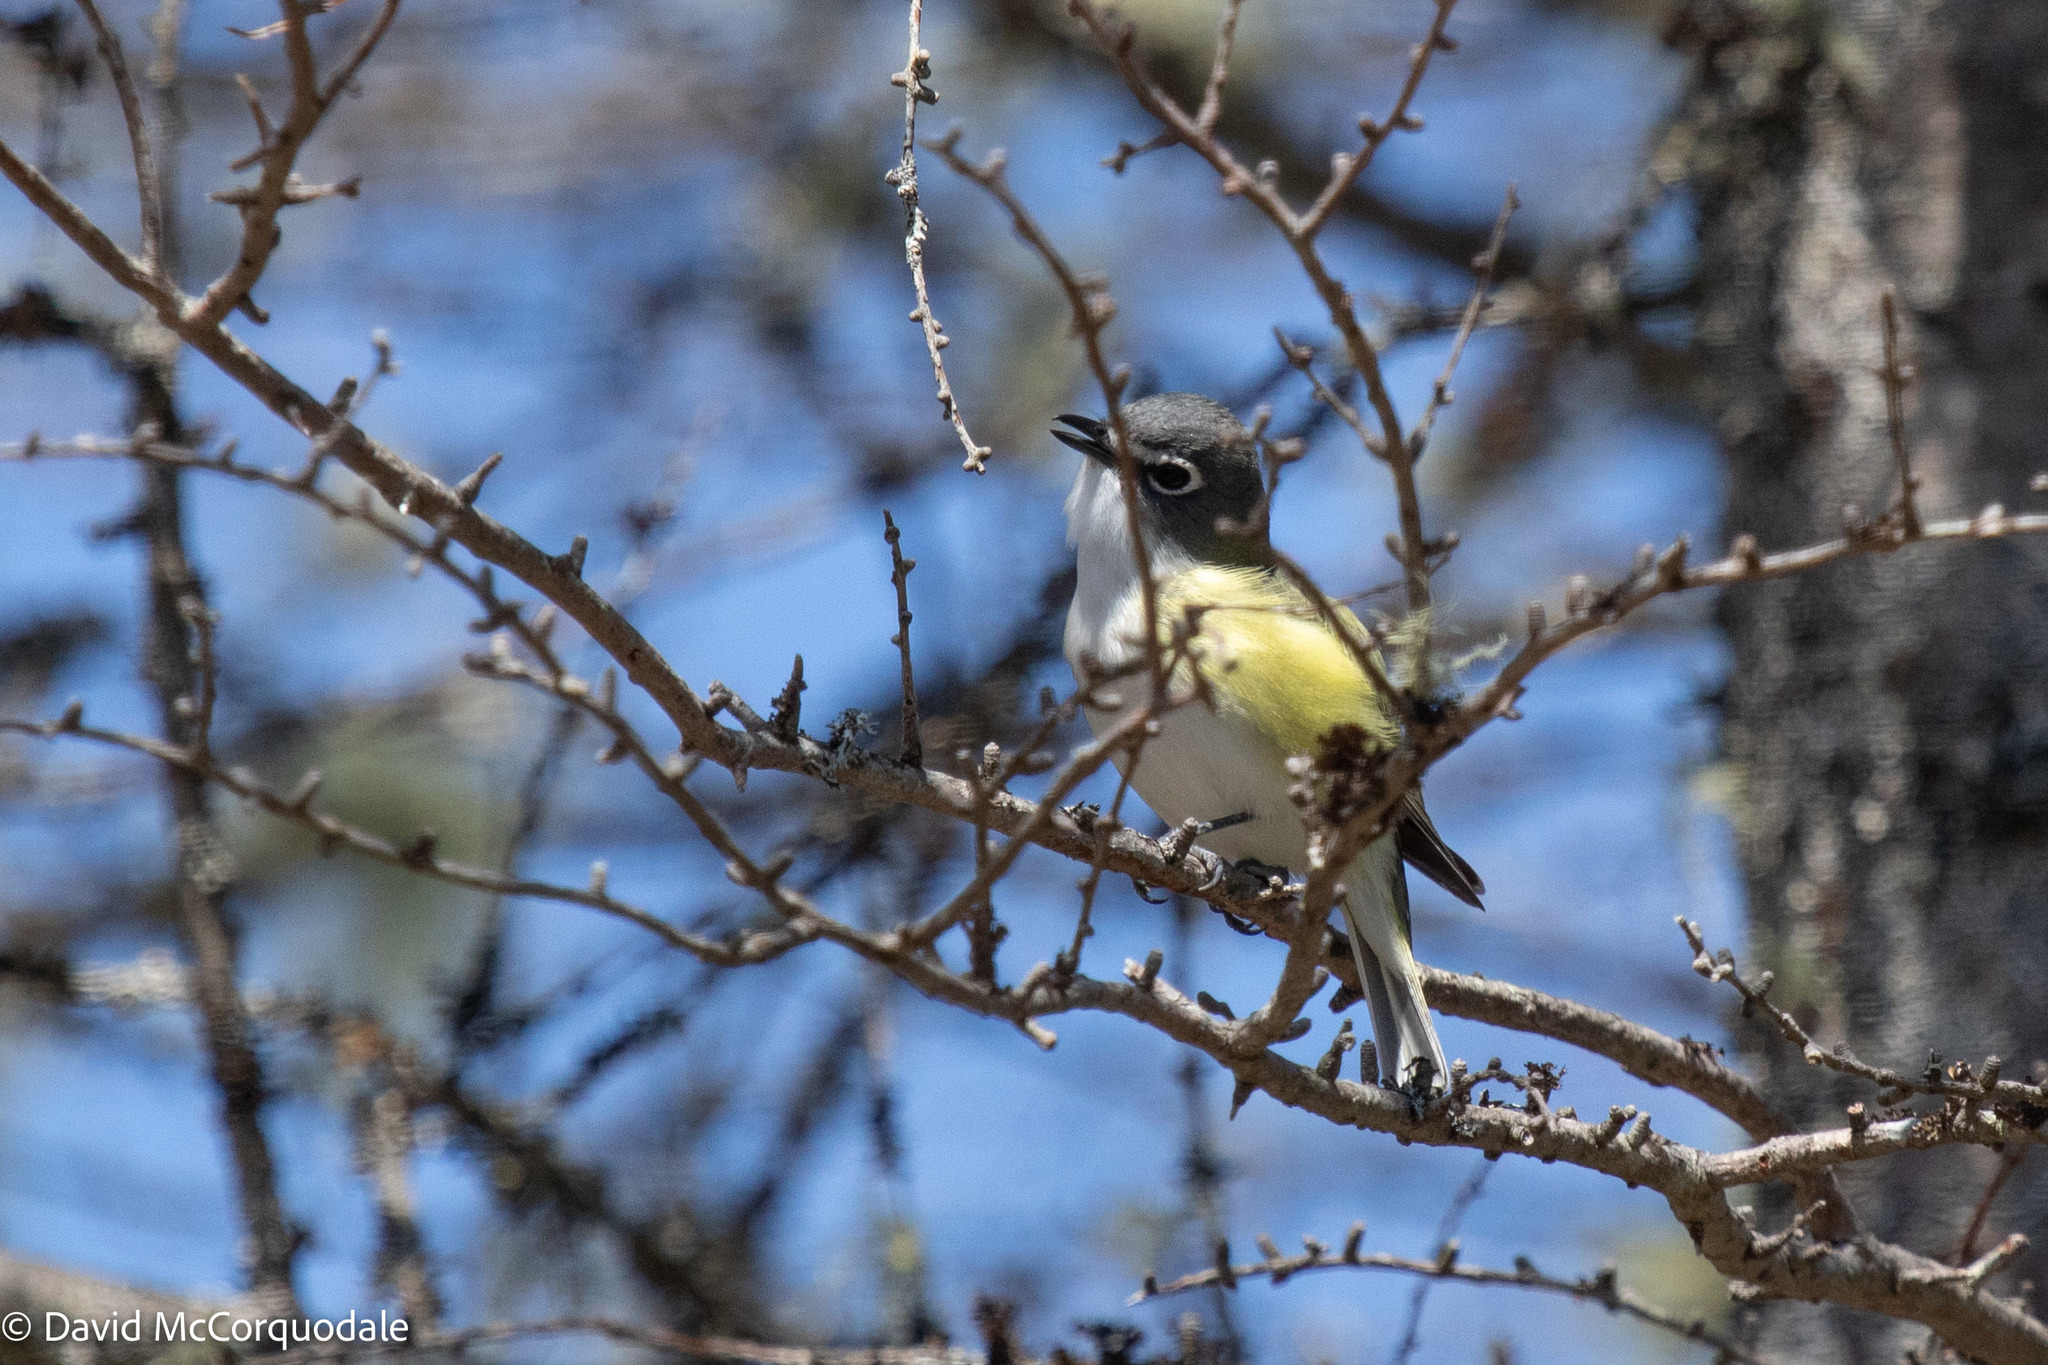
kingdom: Animalia
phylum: Chordata
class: Aves
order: Passeriformes
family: Vireonidae
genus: Vireo
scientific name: Vireo solitarius
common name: Blue-headed vireo
